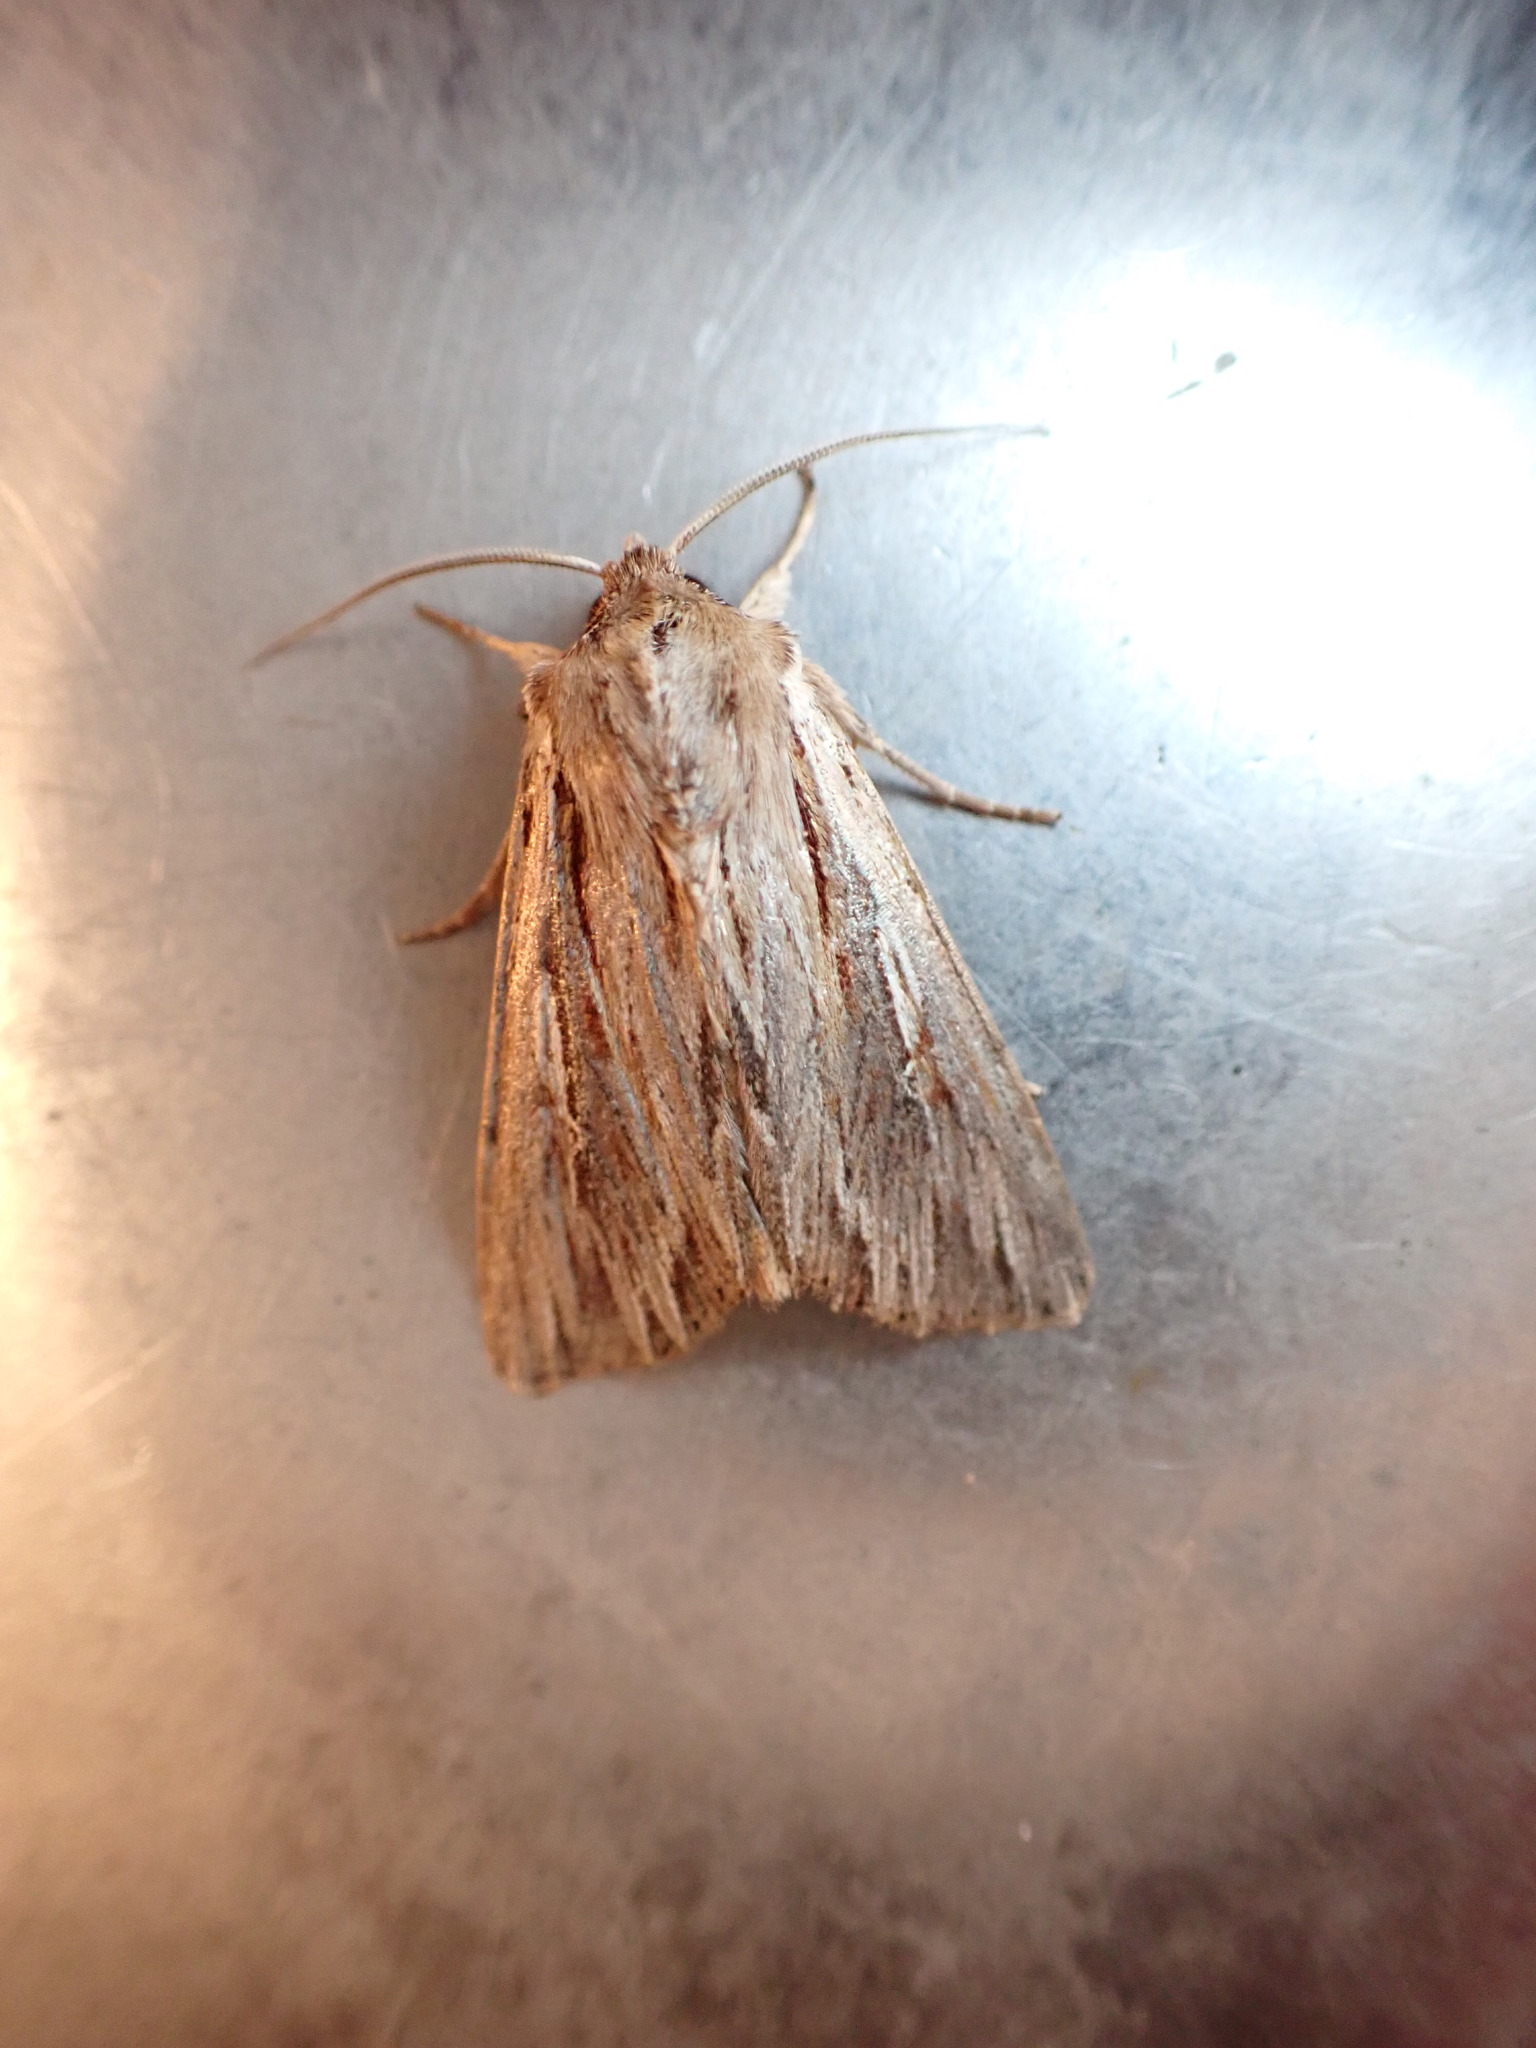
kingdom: Animalia
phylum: Arthropoda
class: Insecta
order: Lepidoptera
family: Noctuidae
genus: Persectania
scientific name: Persectania aversa
